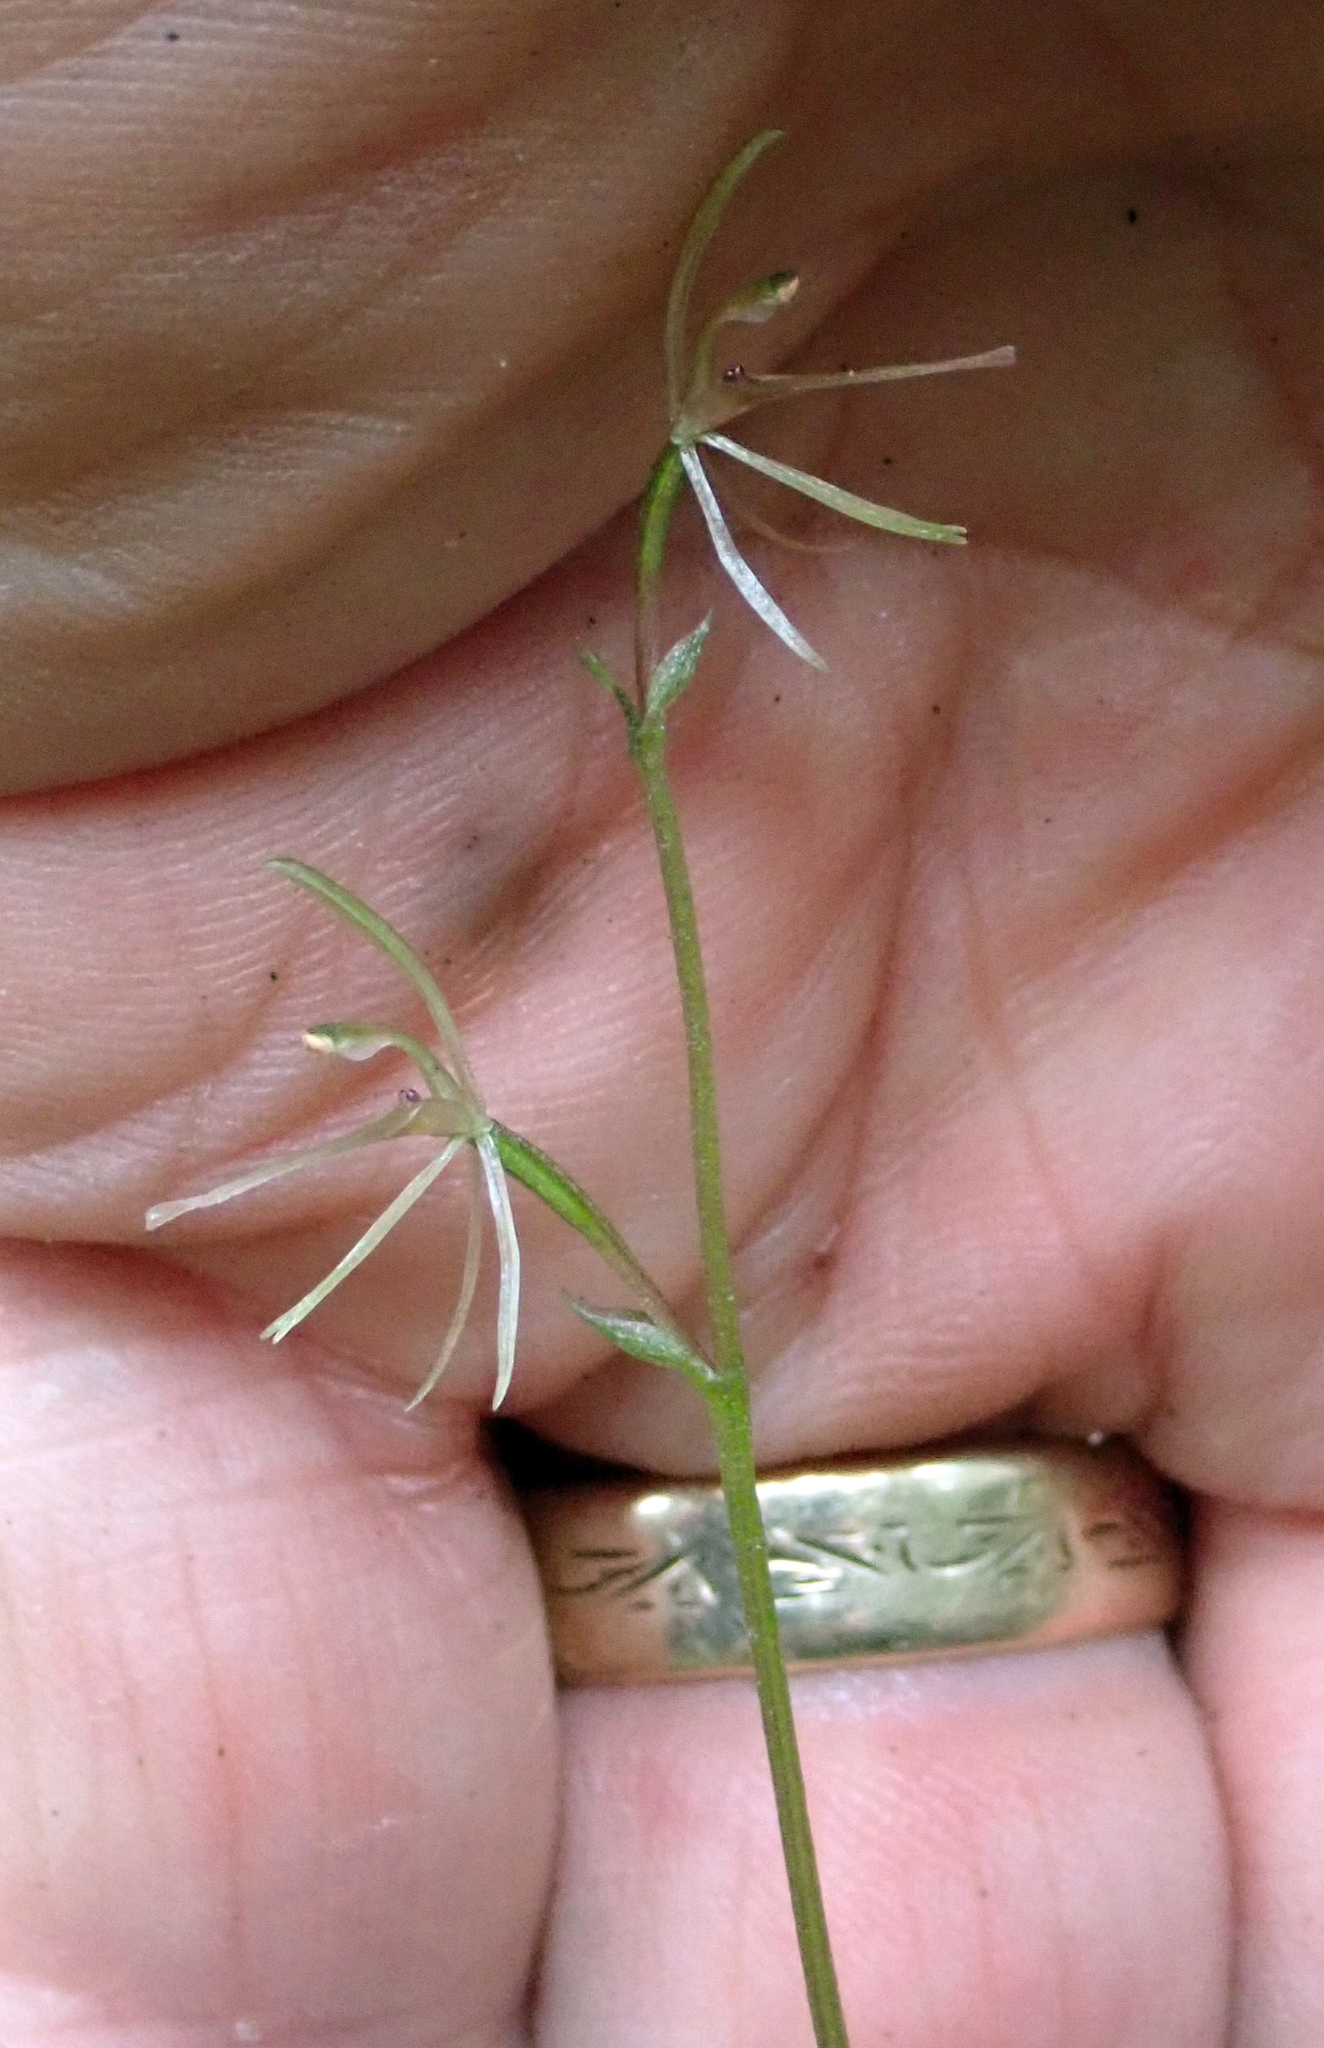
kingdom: Plantae
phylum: Tracheophyta
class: Liliopsida
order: Asparagales
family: Orchidaceae
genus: Cyrtostylis
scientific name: Cyrtostylis oblonga
